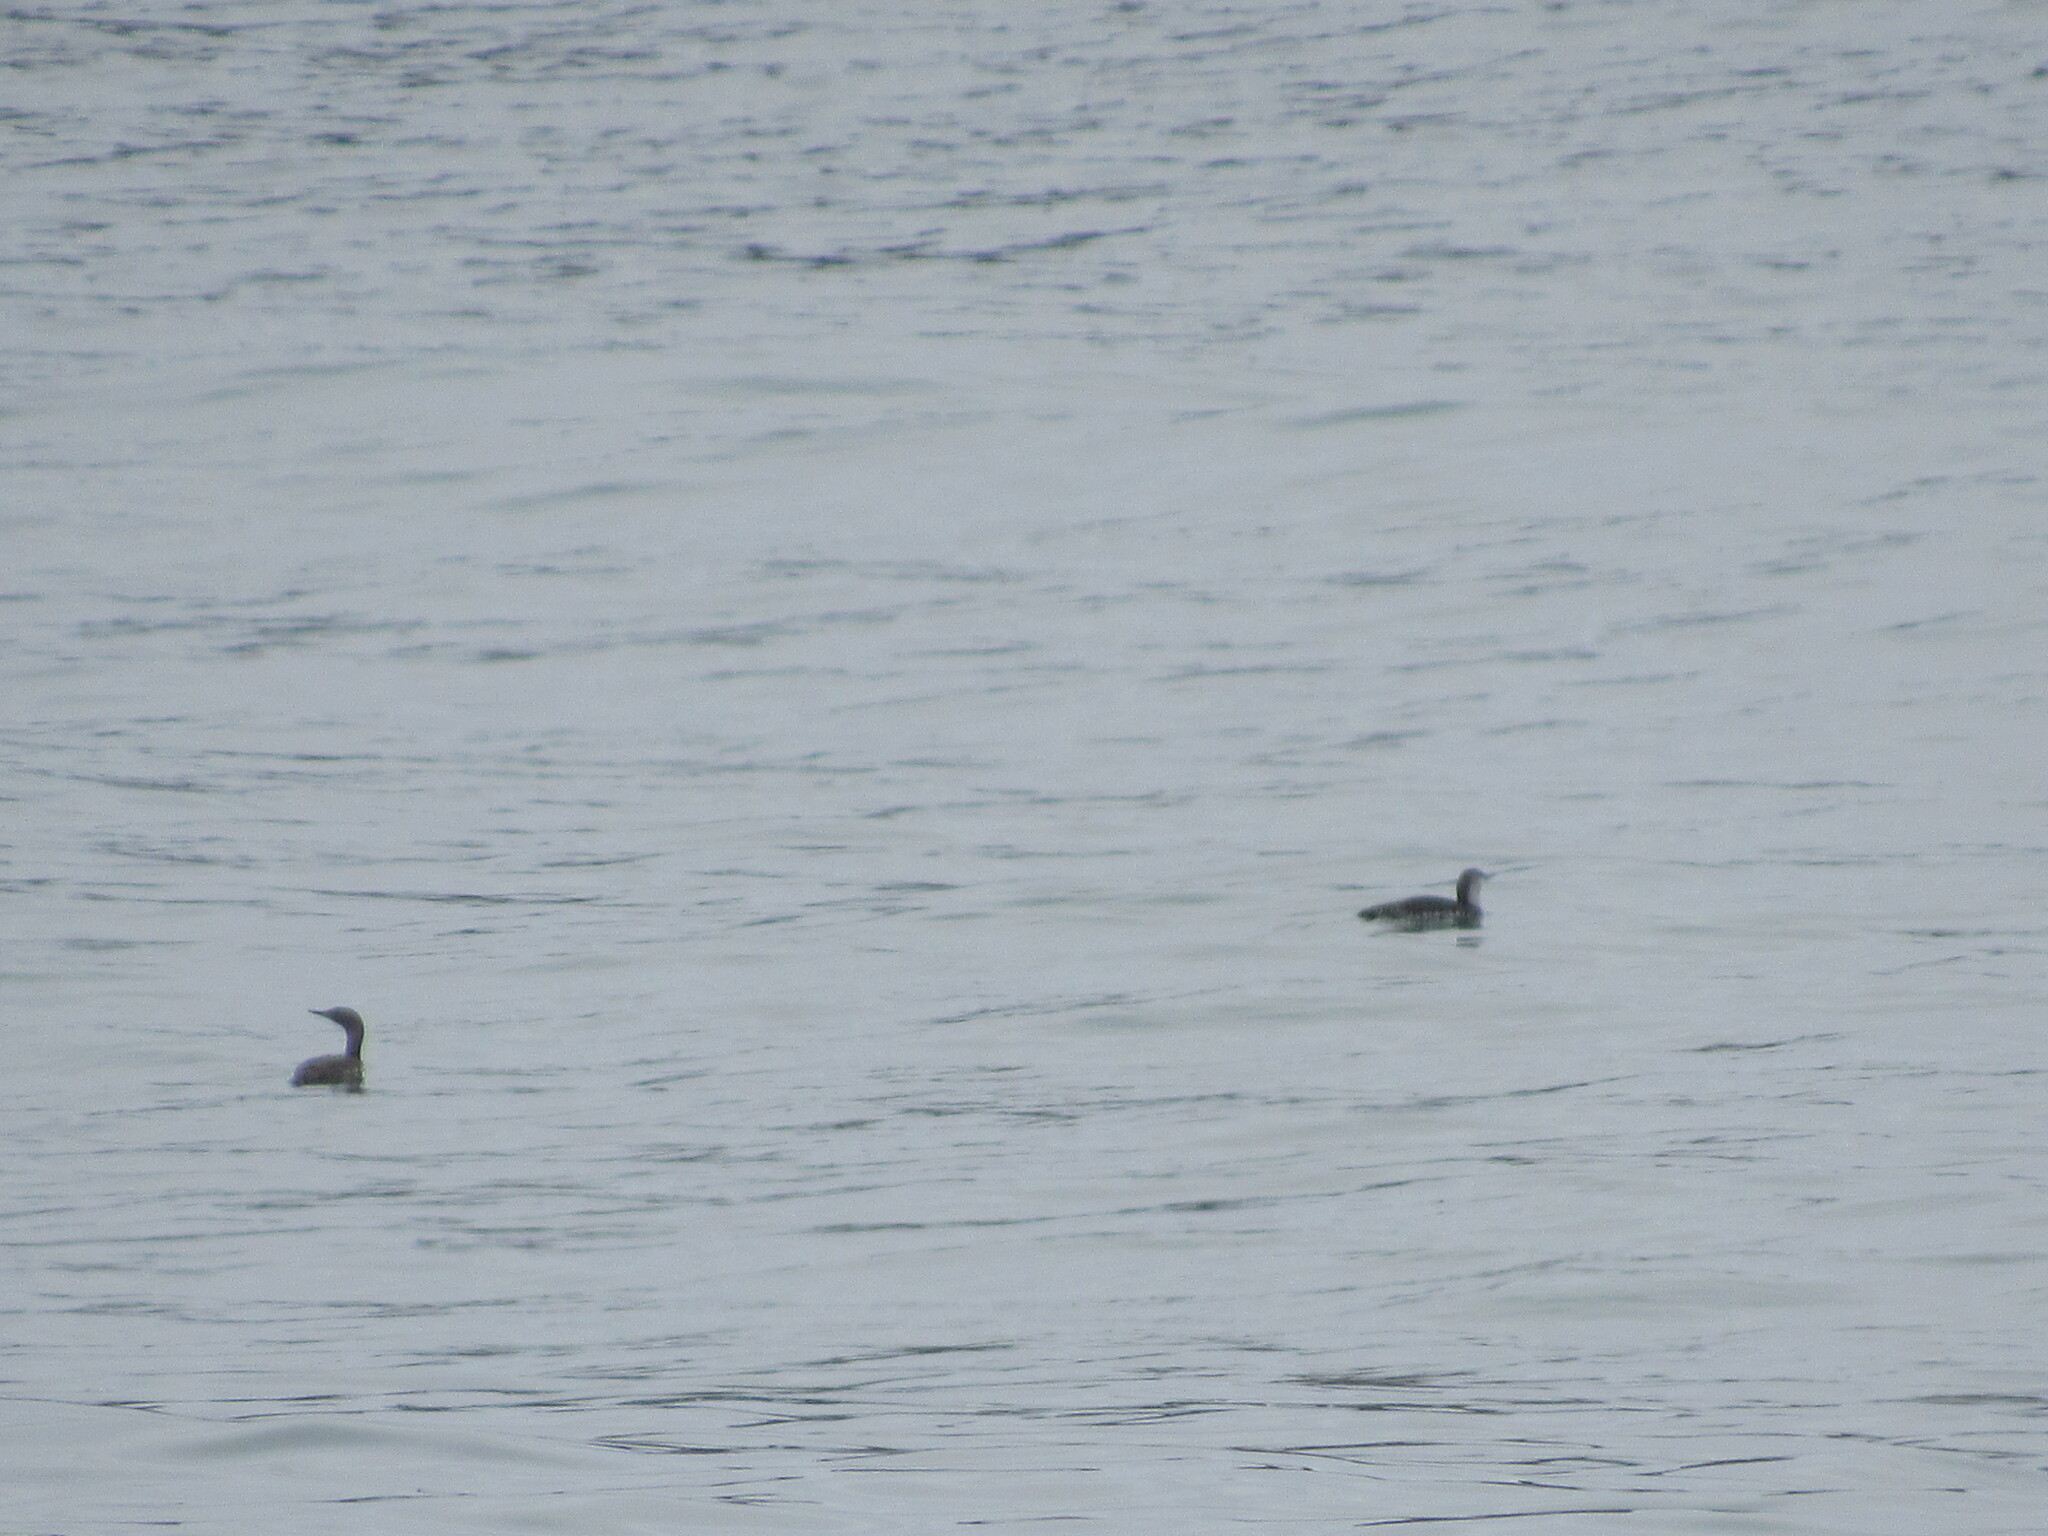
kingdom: Animalia
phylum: Chordata
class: Aves
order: Gaviiformes
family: Gaviidae
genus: Gavia
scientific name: Gavia stellata
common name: Red-throated loon
